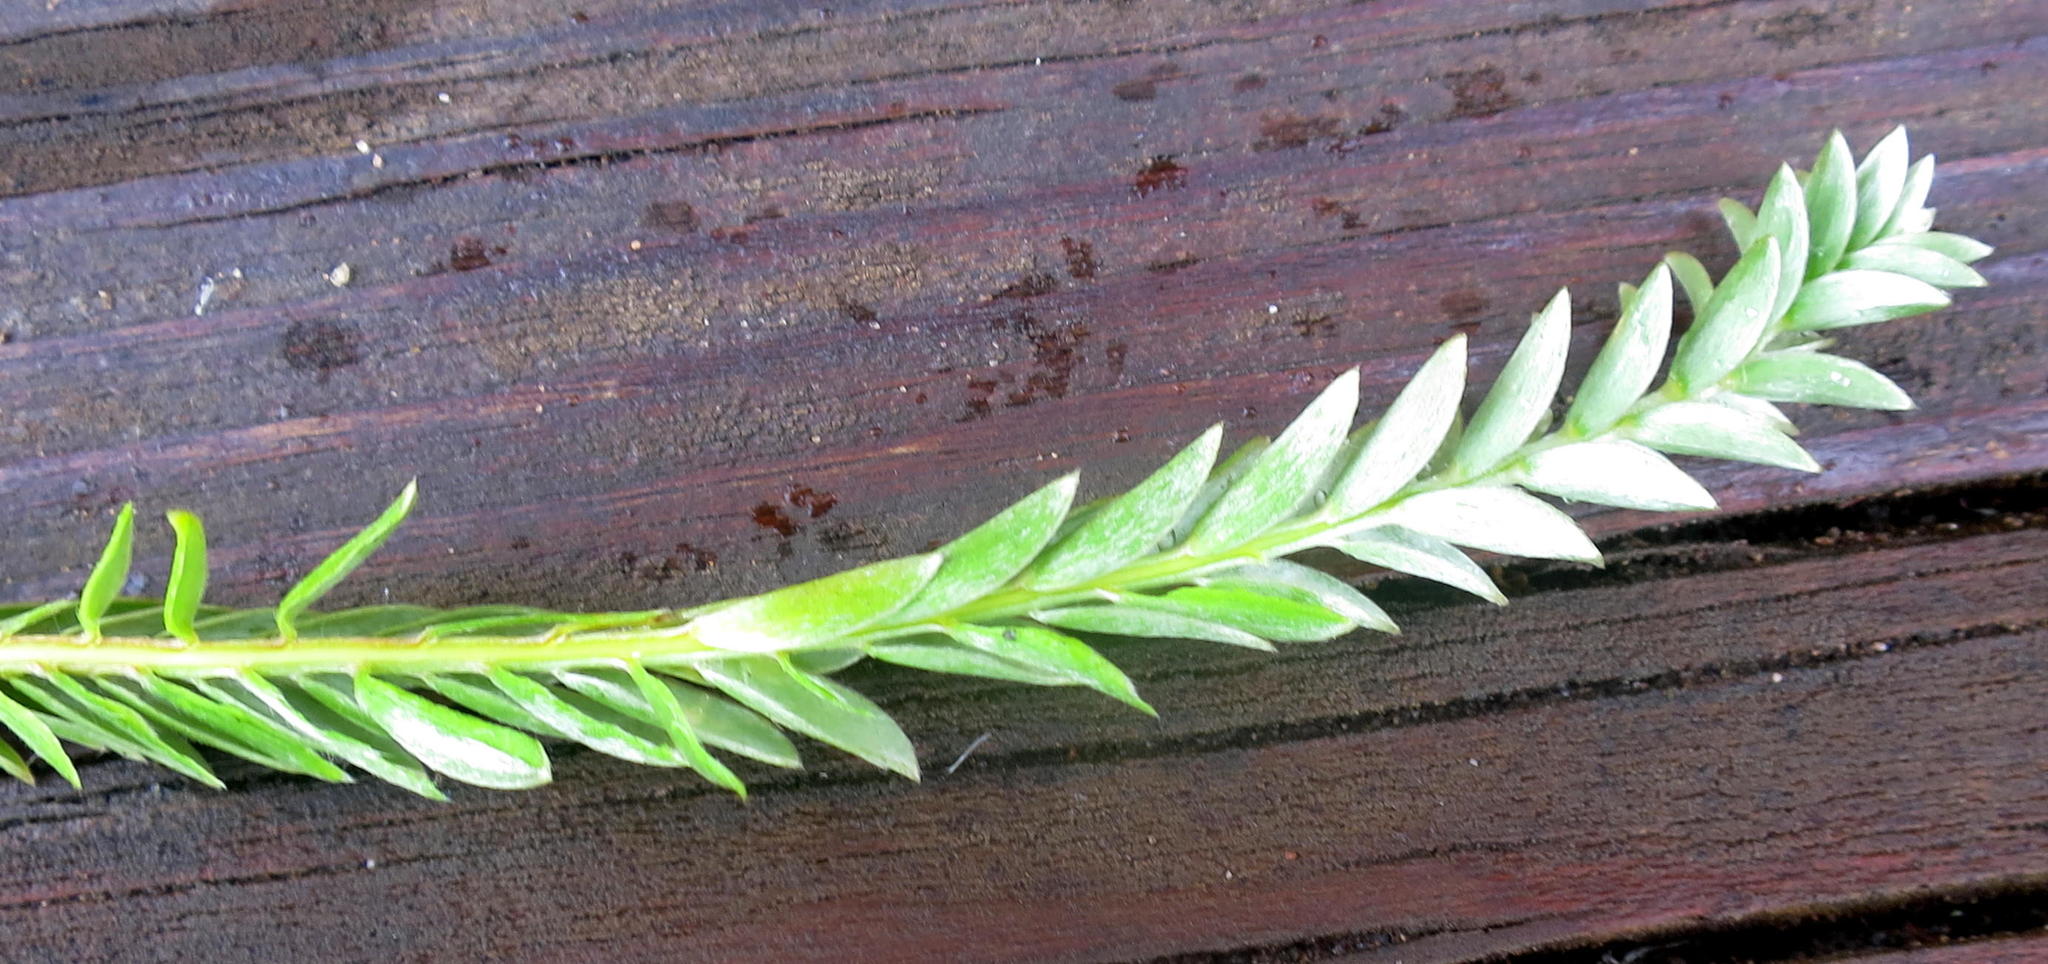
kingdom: Plantae
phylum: Tracheophyta
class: Magnoliopsida
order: Malvales
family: Thymelaeaceae
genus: Gnidia
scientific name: Gnidia chrysophylla
